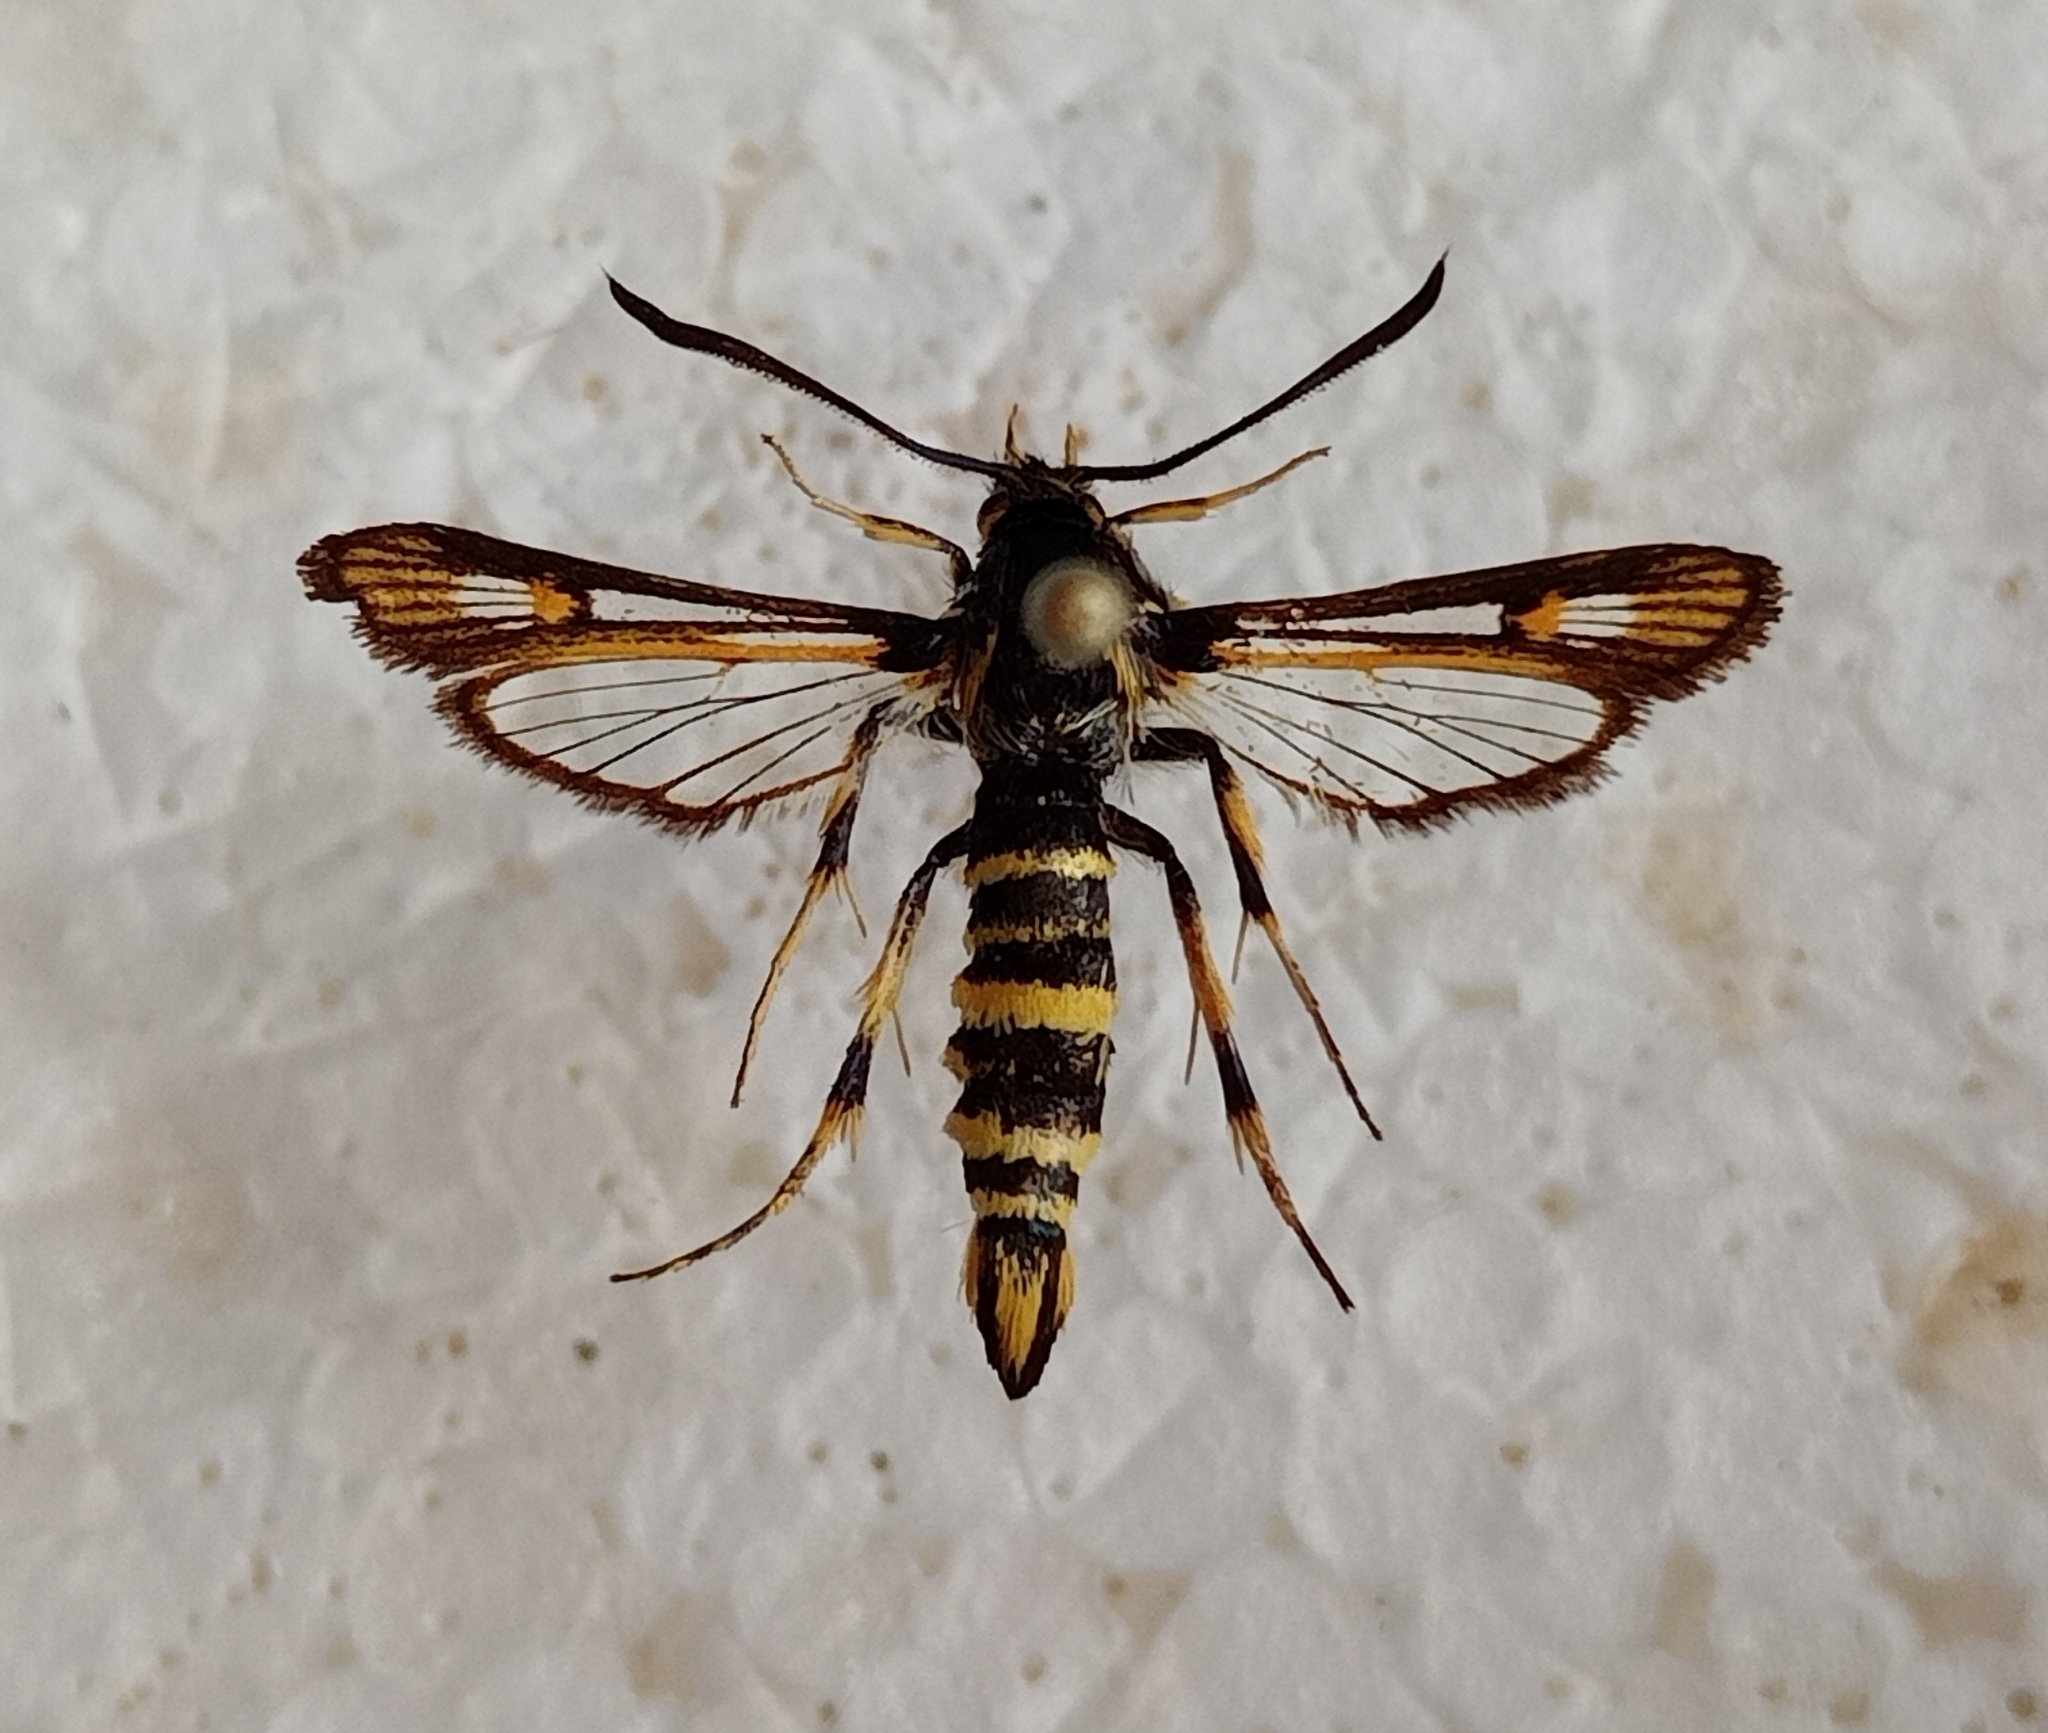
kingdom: Animalia
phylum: Arthropoda
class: Insecta
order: Lepidoptera
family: Sesiidae
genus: Bembecia
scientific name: Bembecia uroceriformis
